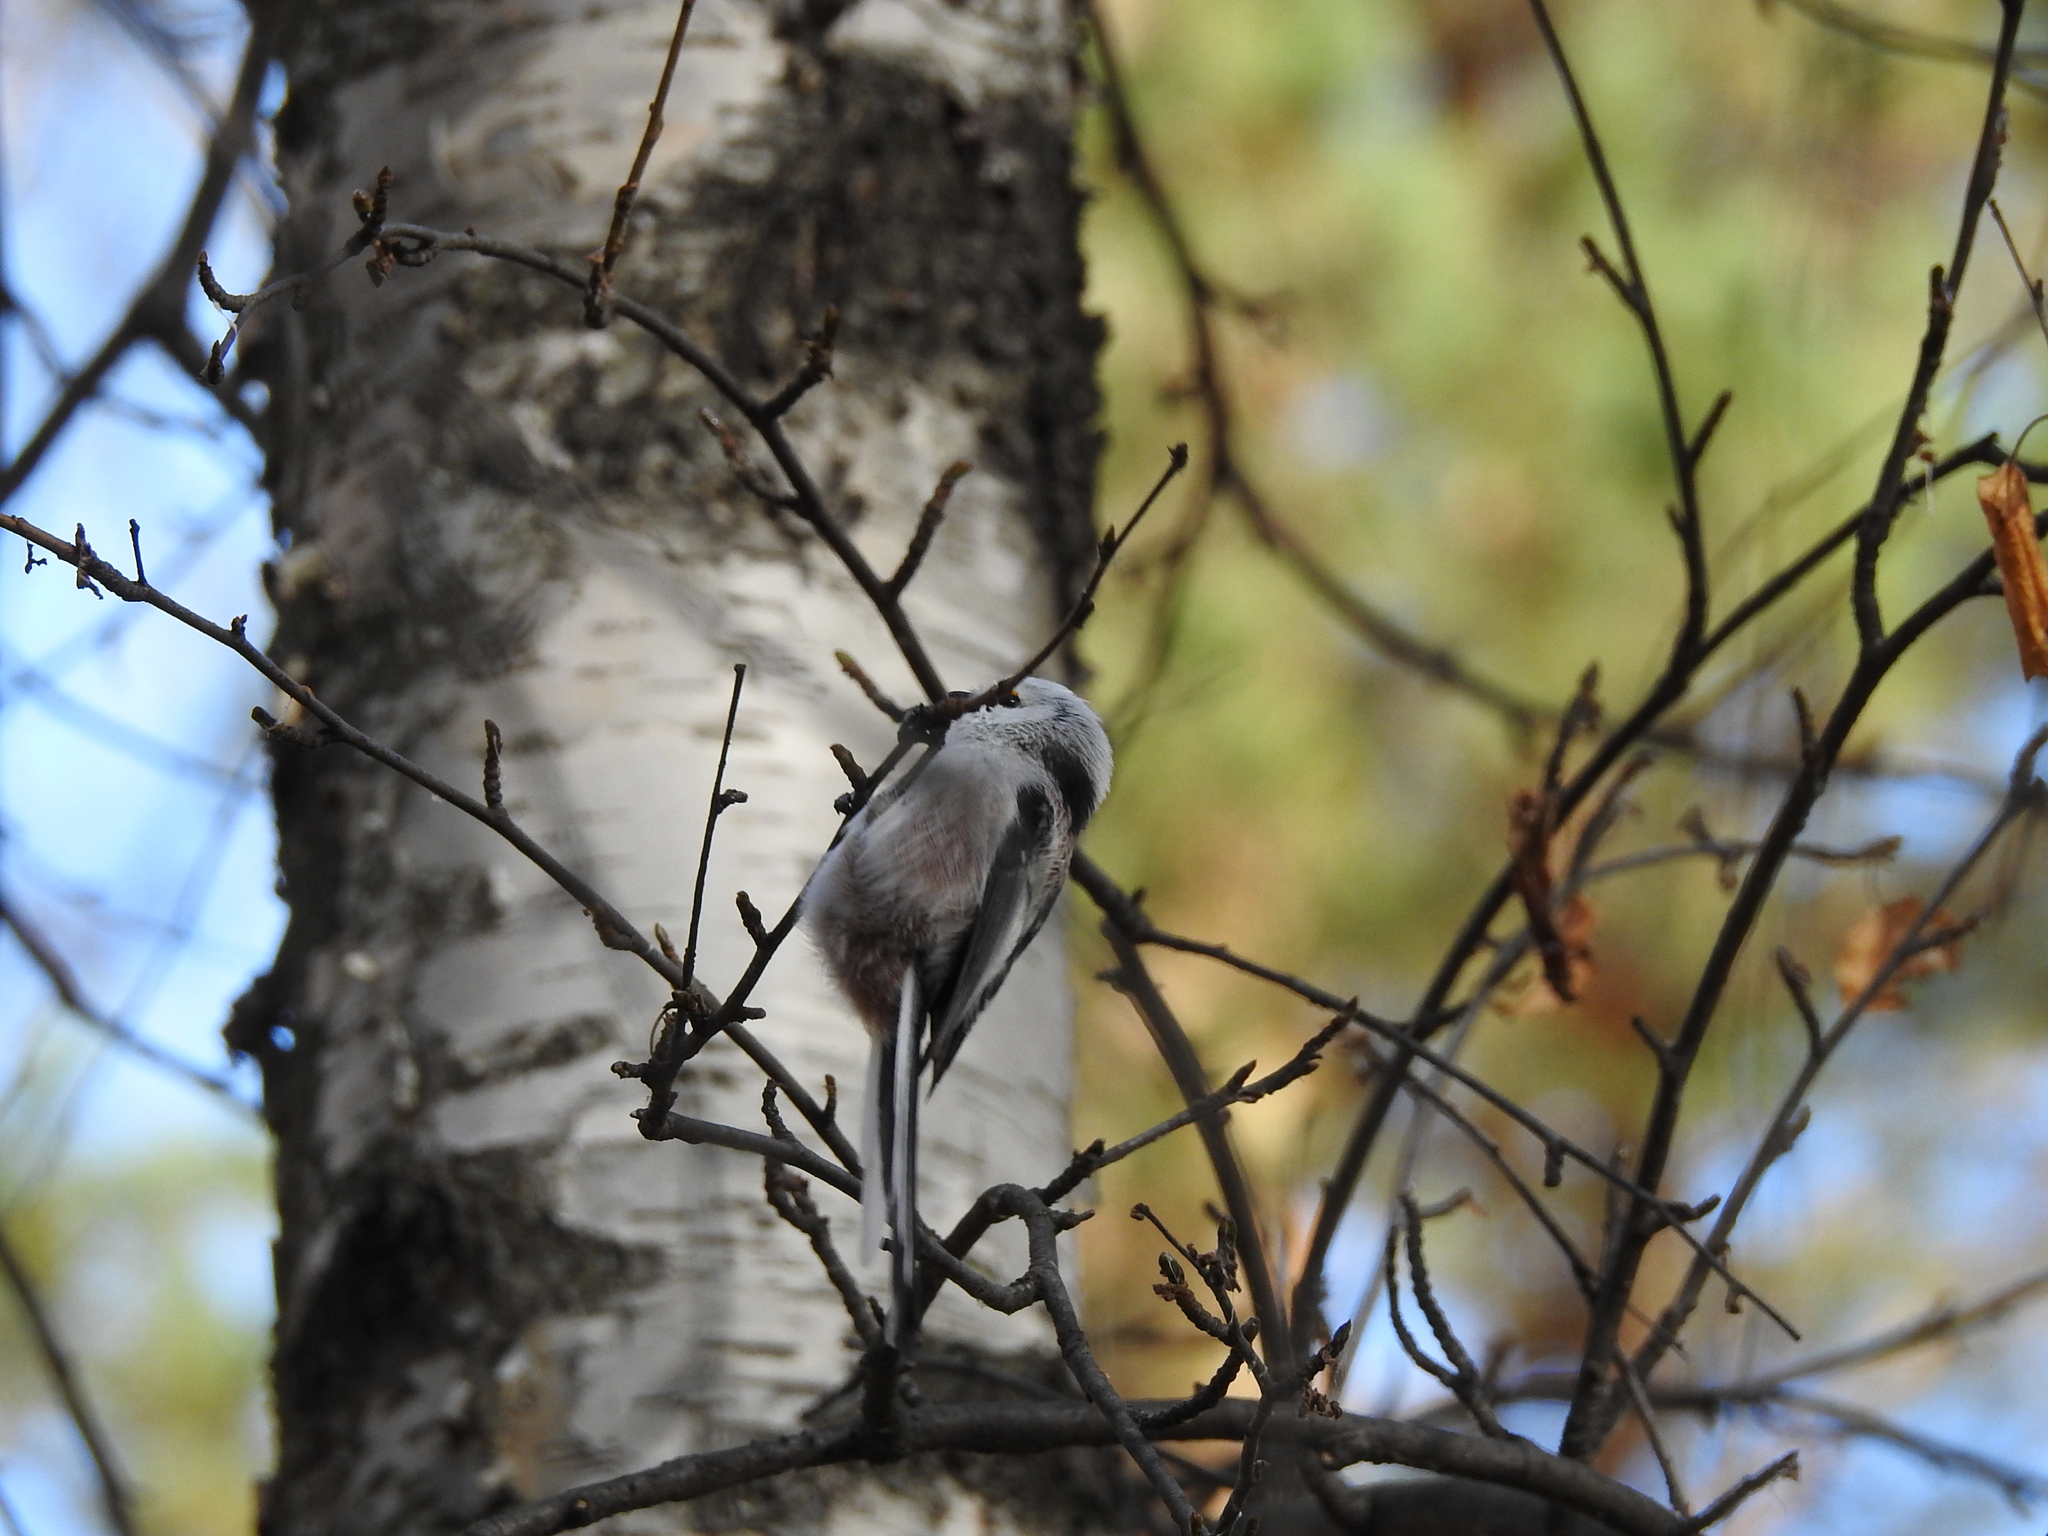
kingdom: Animalia
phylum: Chordata
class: Aves
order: Passeriformes
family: Aegithalidae
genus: Aegithalos
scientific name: Aegithalos caudatus
